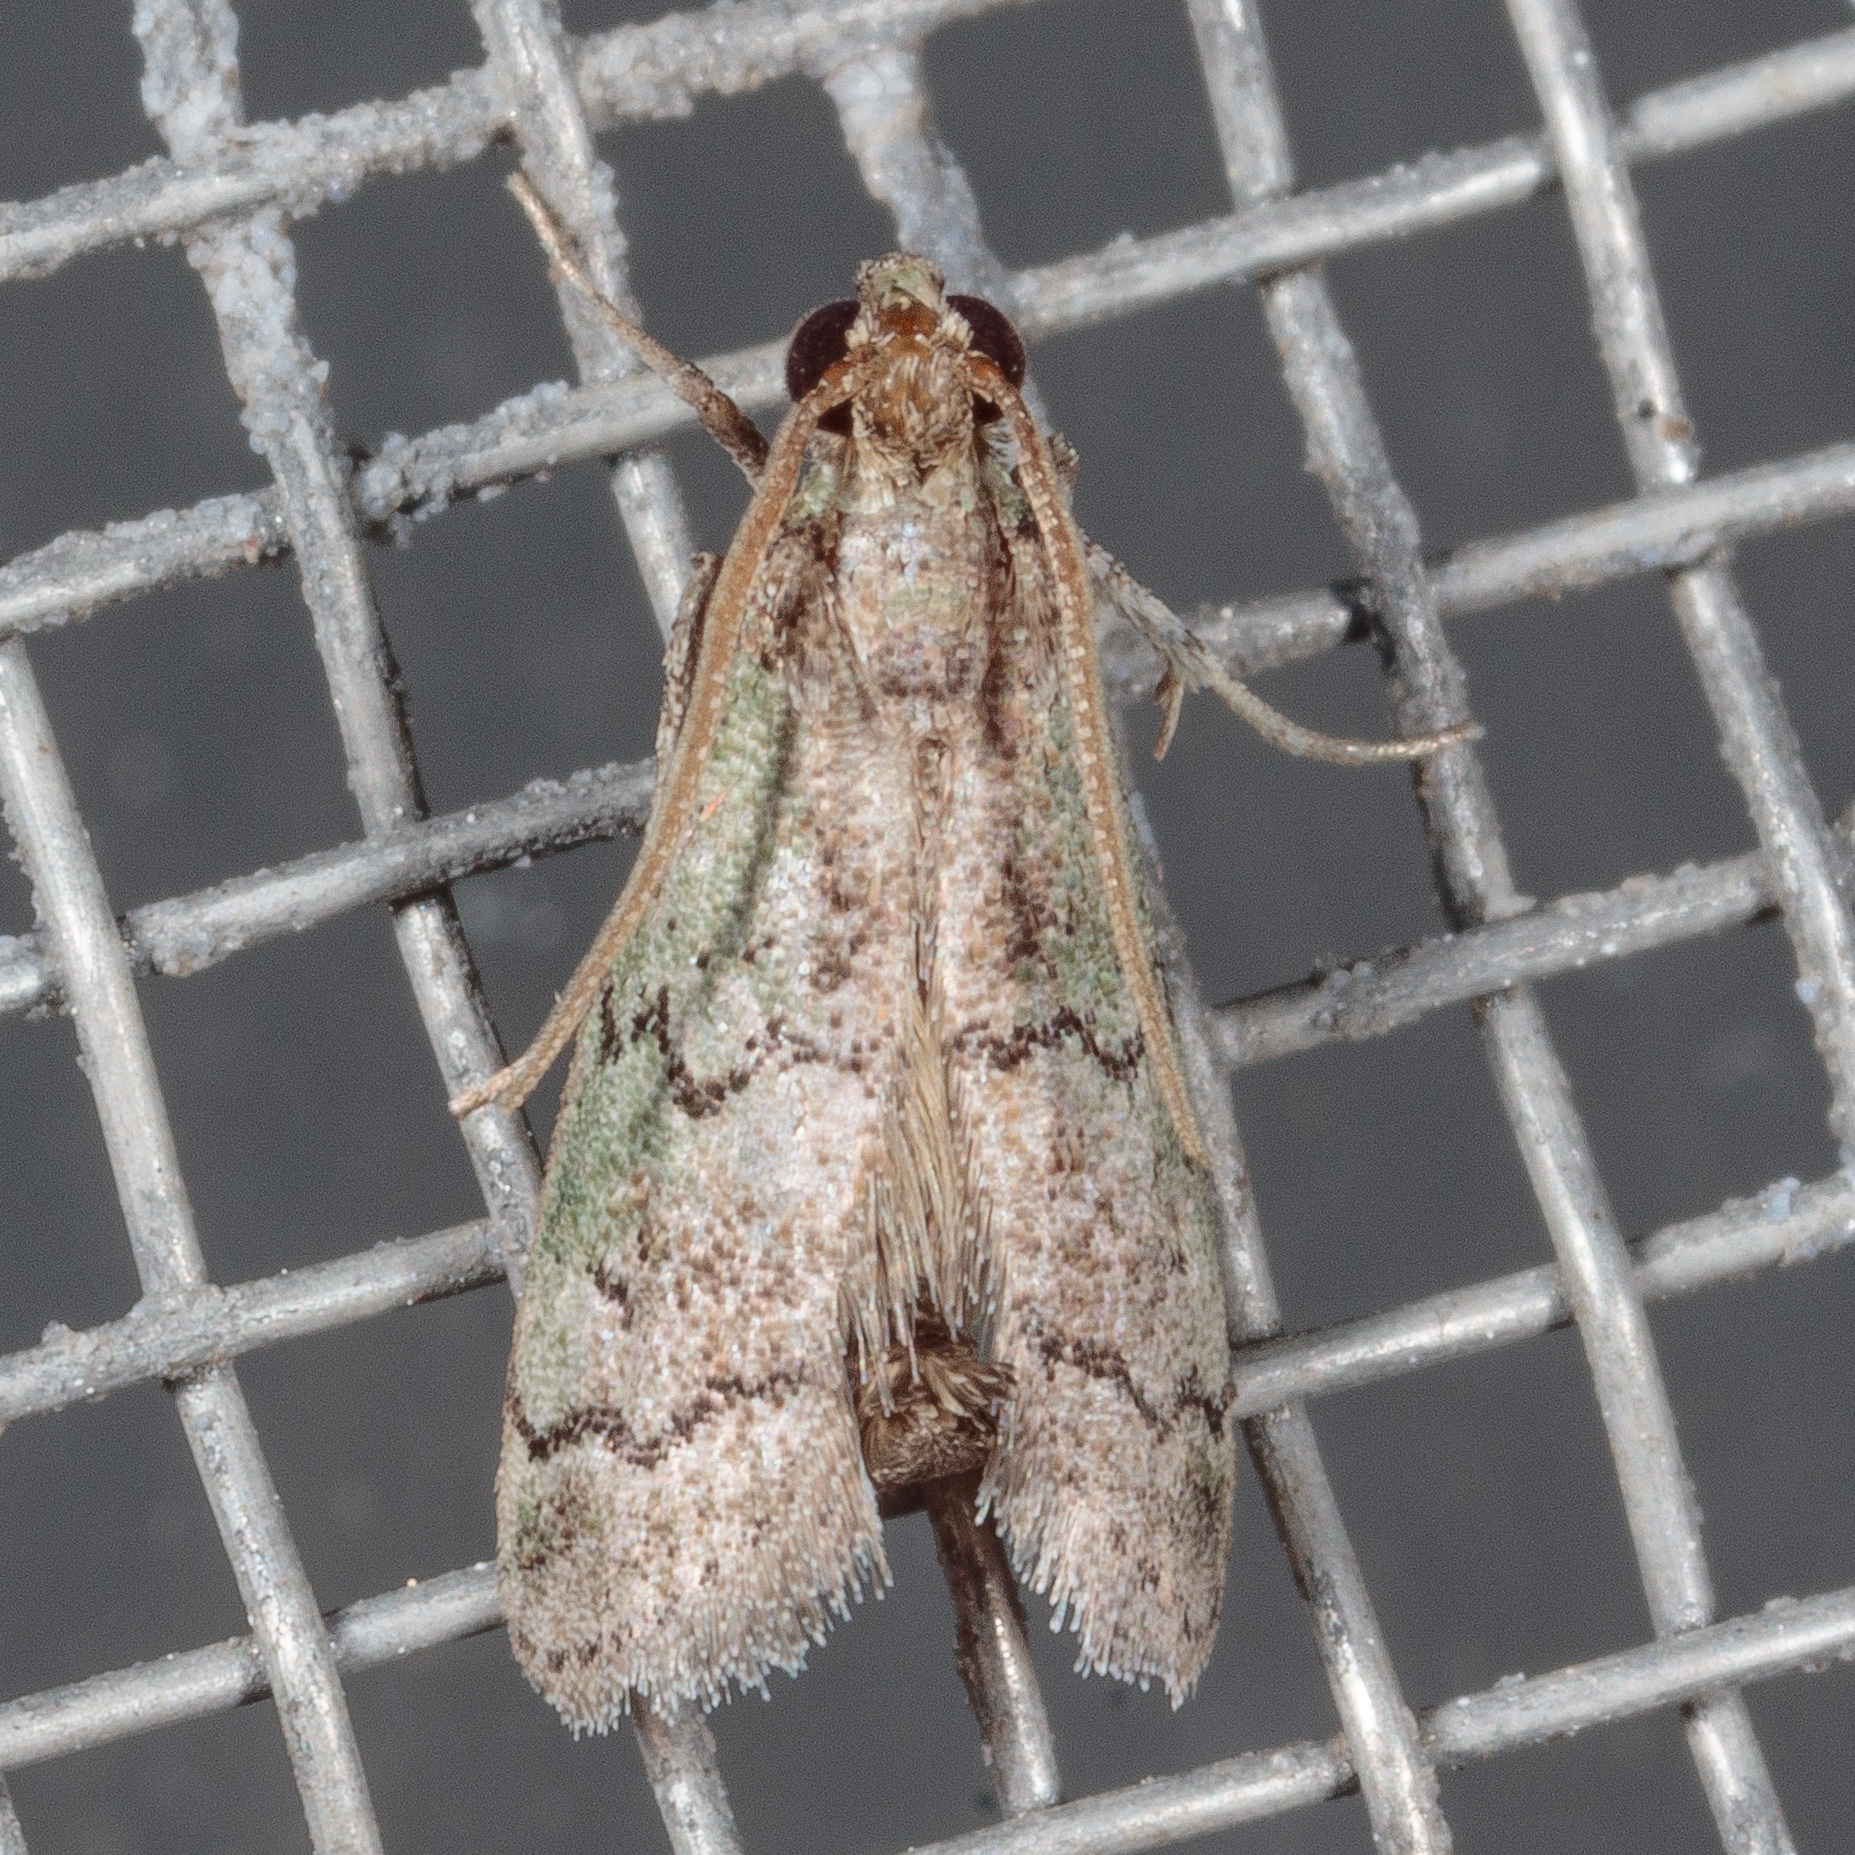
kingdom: Animalia
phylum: Arthropoda
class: Insecta
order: Lepidoptera
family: Pyralidae
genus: Cacotherapia
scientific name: Cacotherapia flexilinealis
